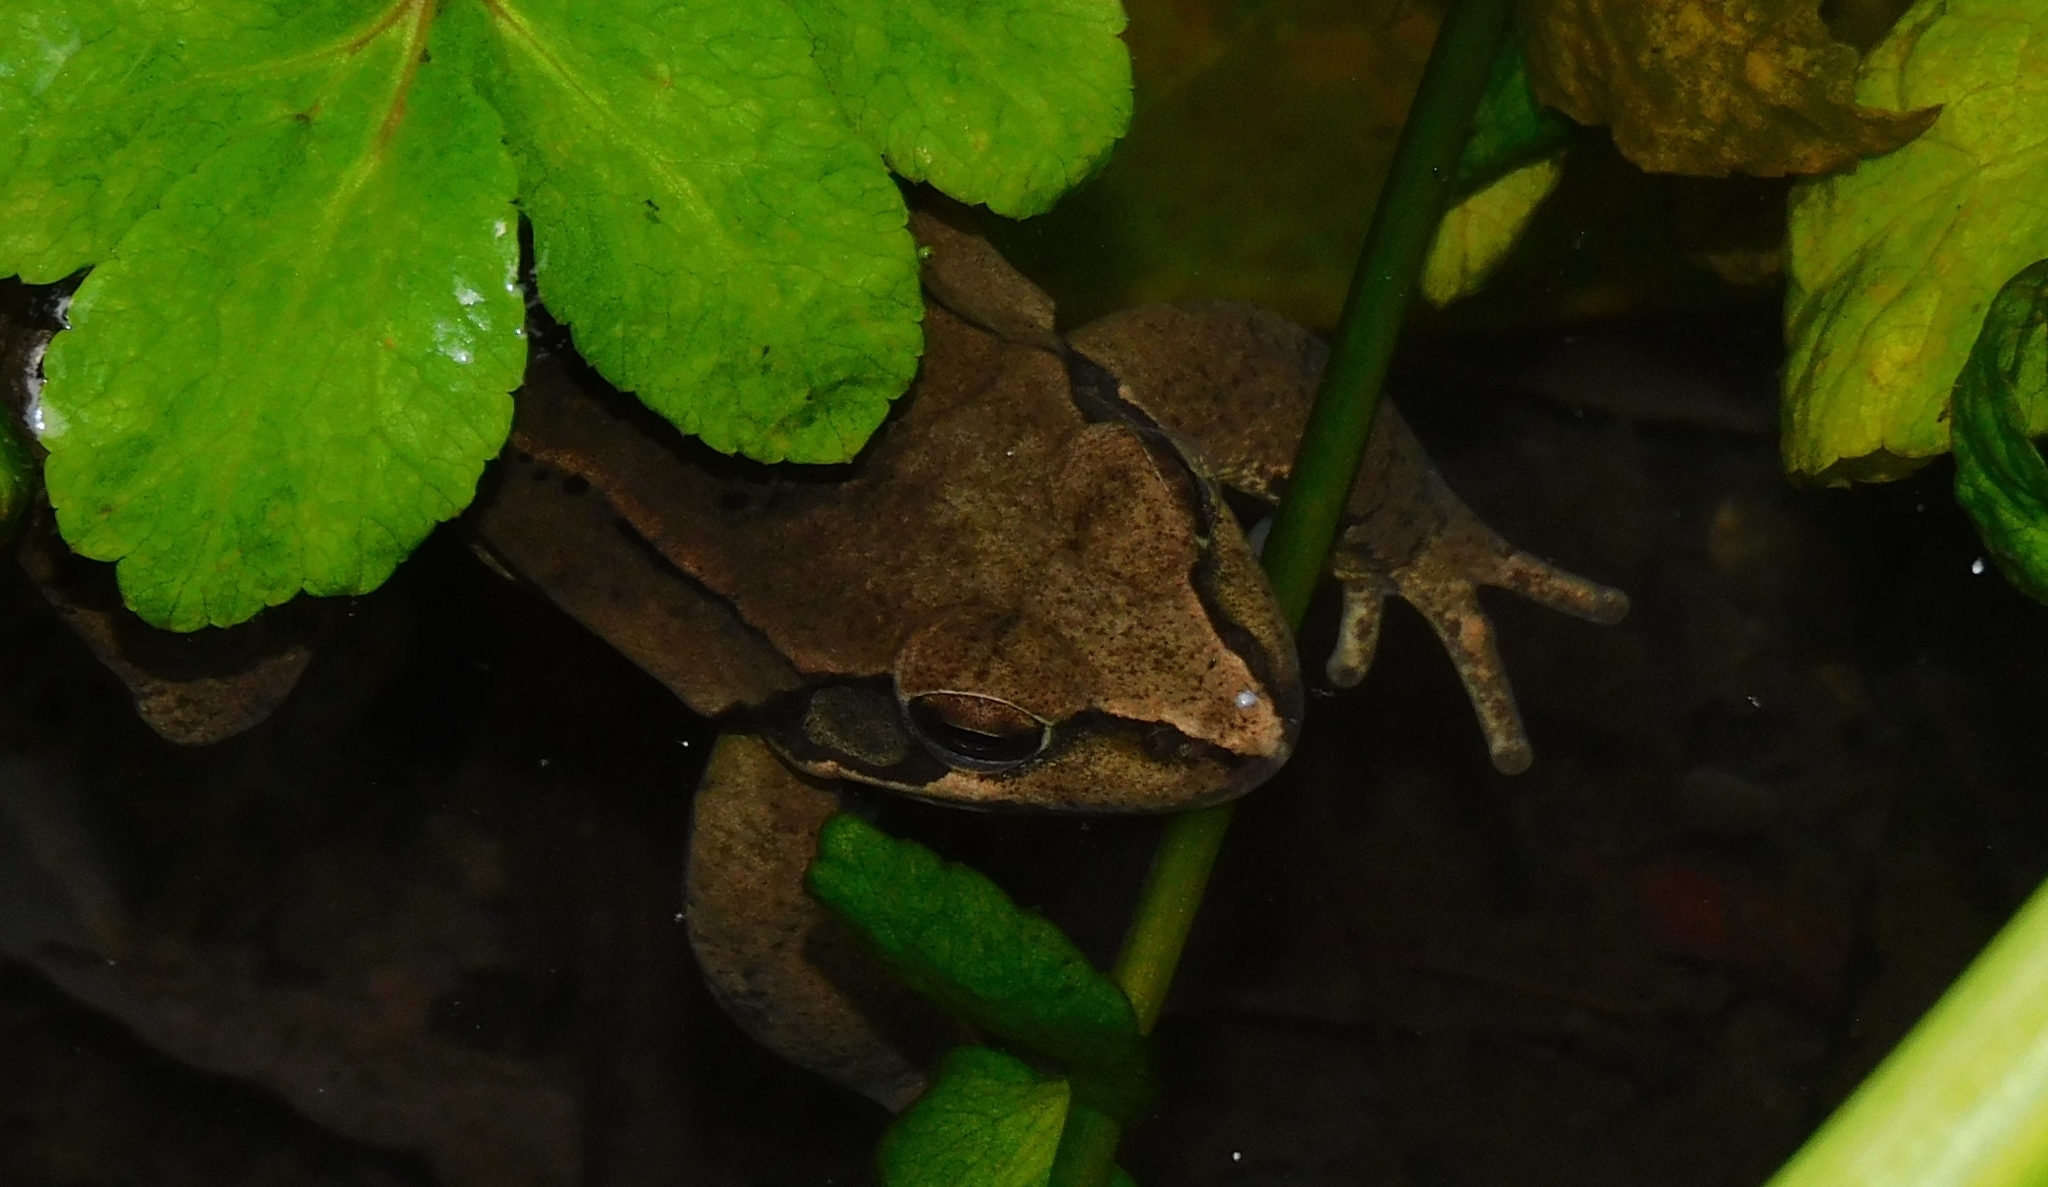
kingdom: Animalia
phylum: Chordata
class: Amphibia
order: Anura
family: Ranidae
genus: Rana
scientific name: Rana dalmatina
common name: Agile frog
